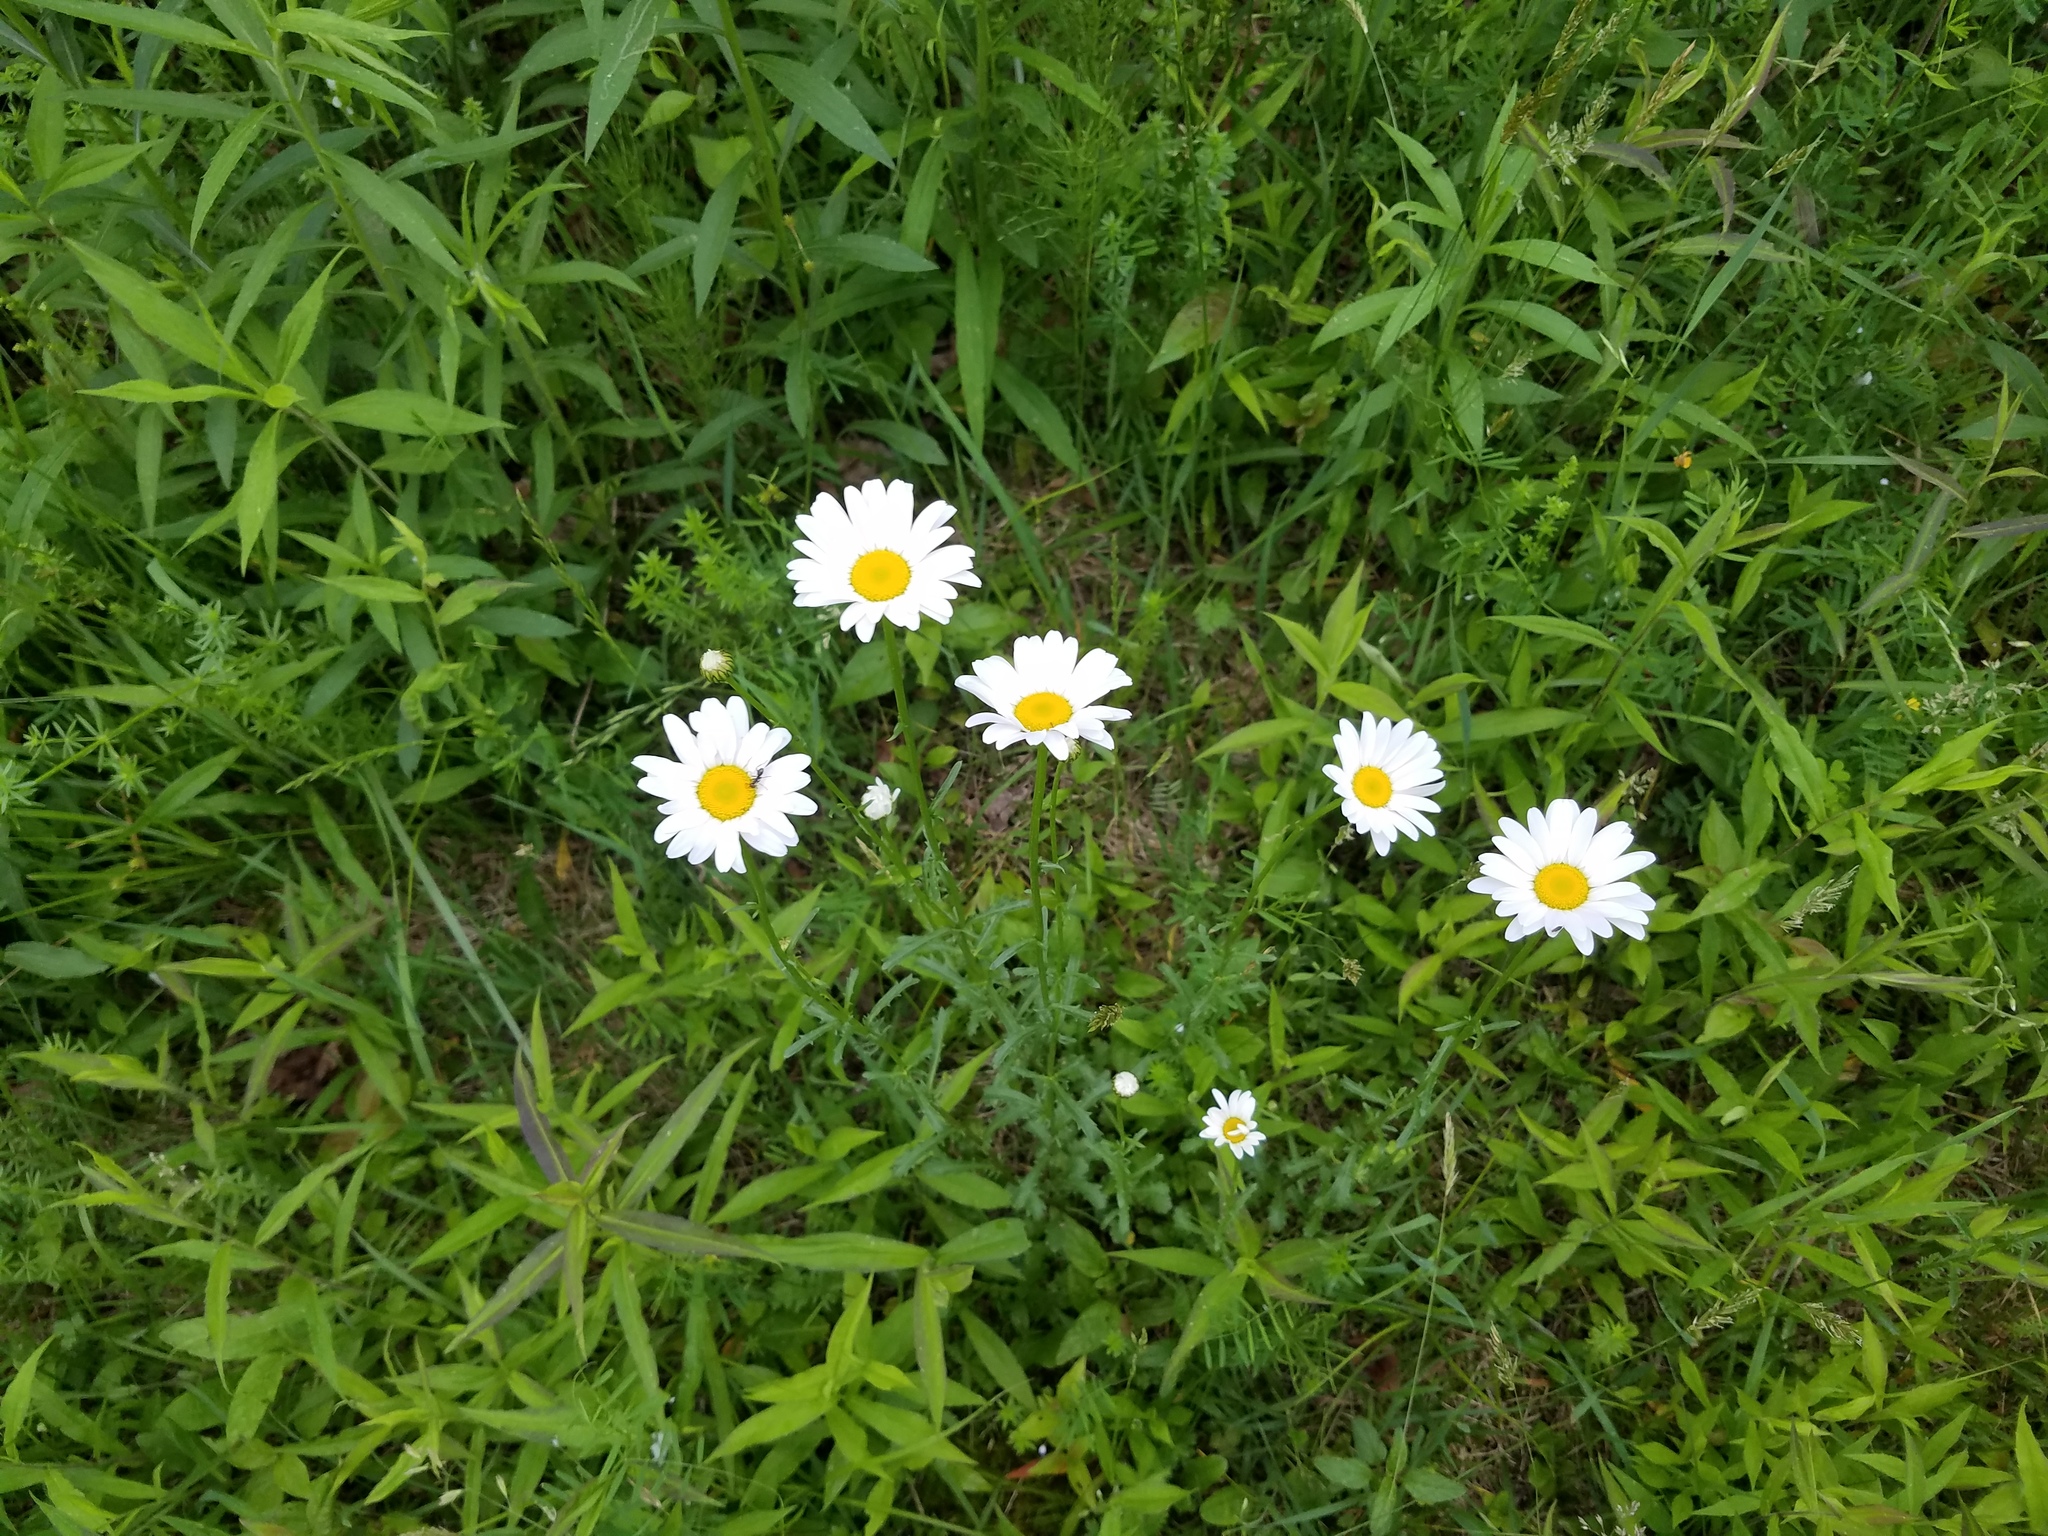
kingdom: Plantae
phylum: Tracheophyta
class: Magnoliopsida
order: Asterales
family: Asteraceae
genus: Leucanthemum
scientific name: Leucanthemum vulgare
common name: Oxeye daisy
